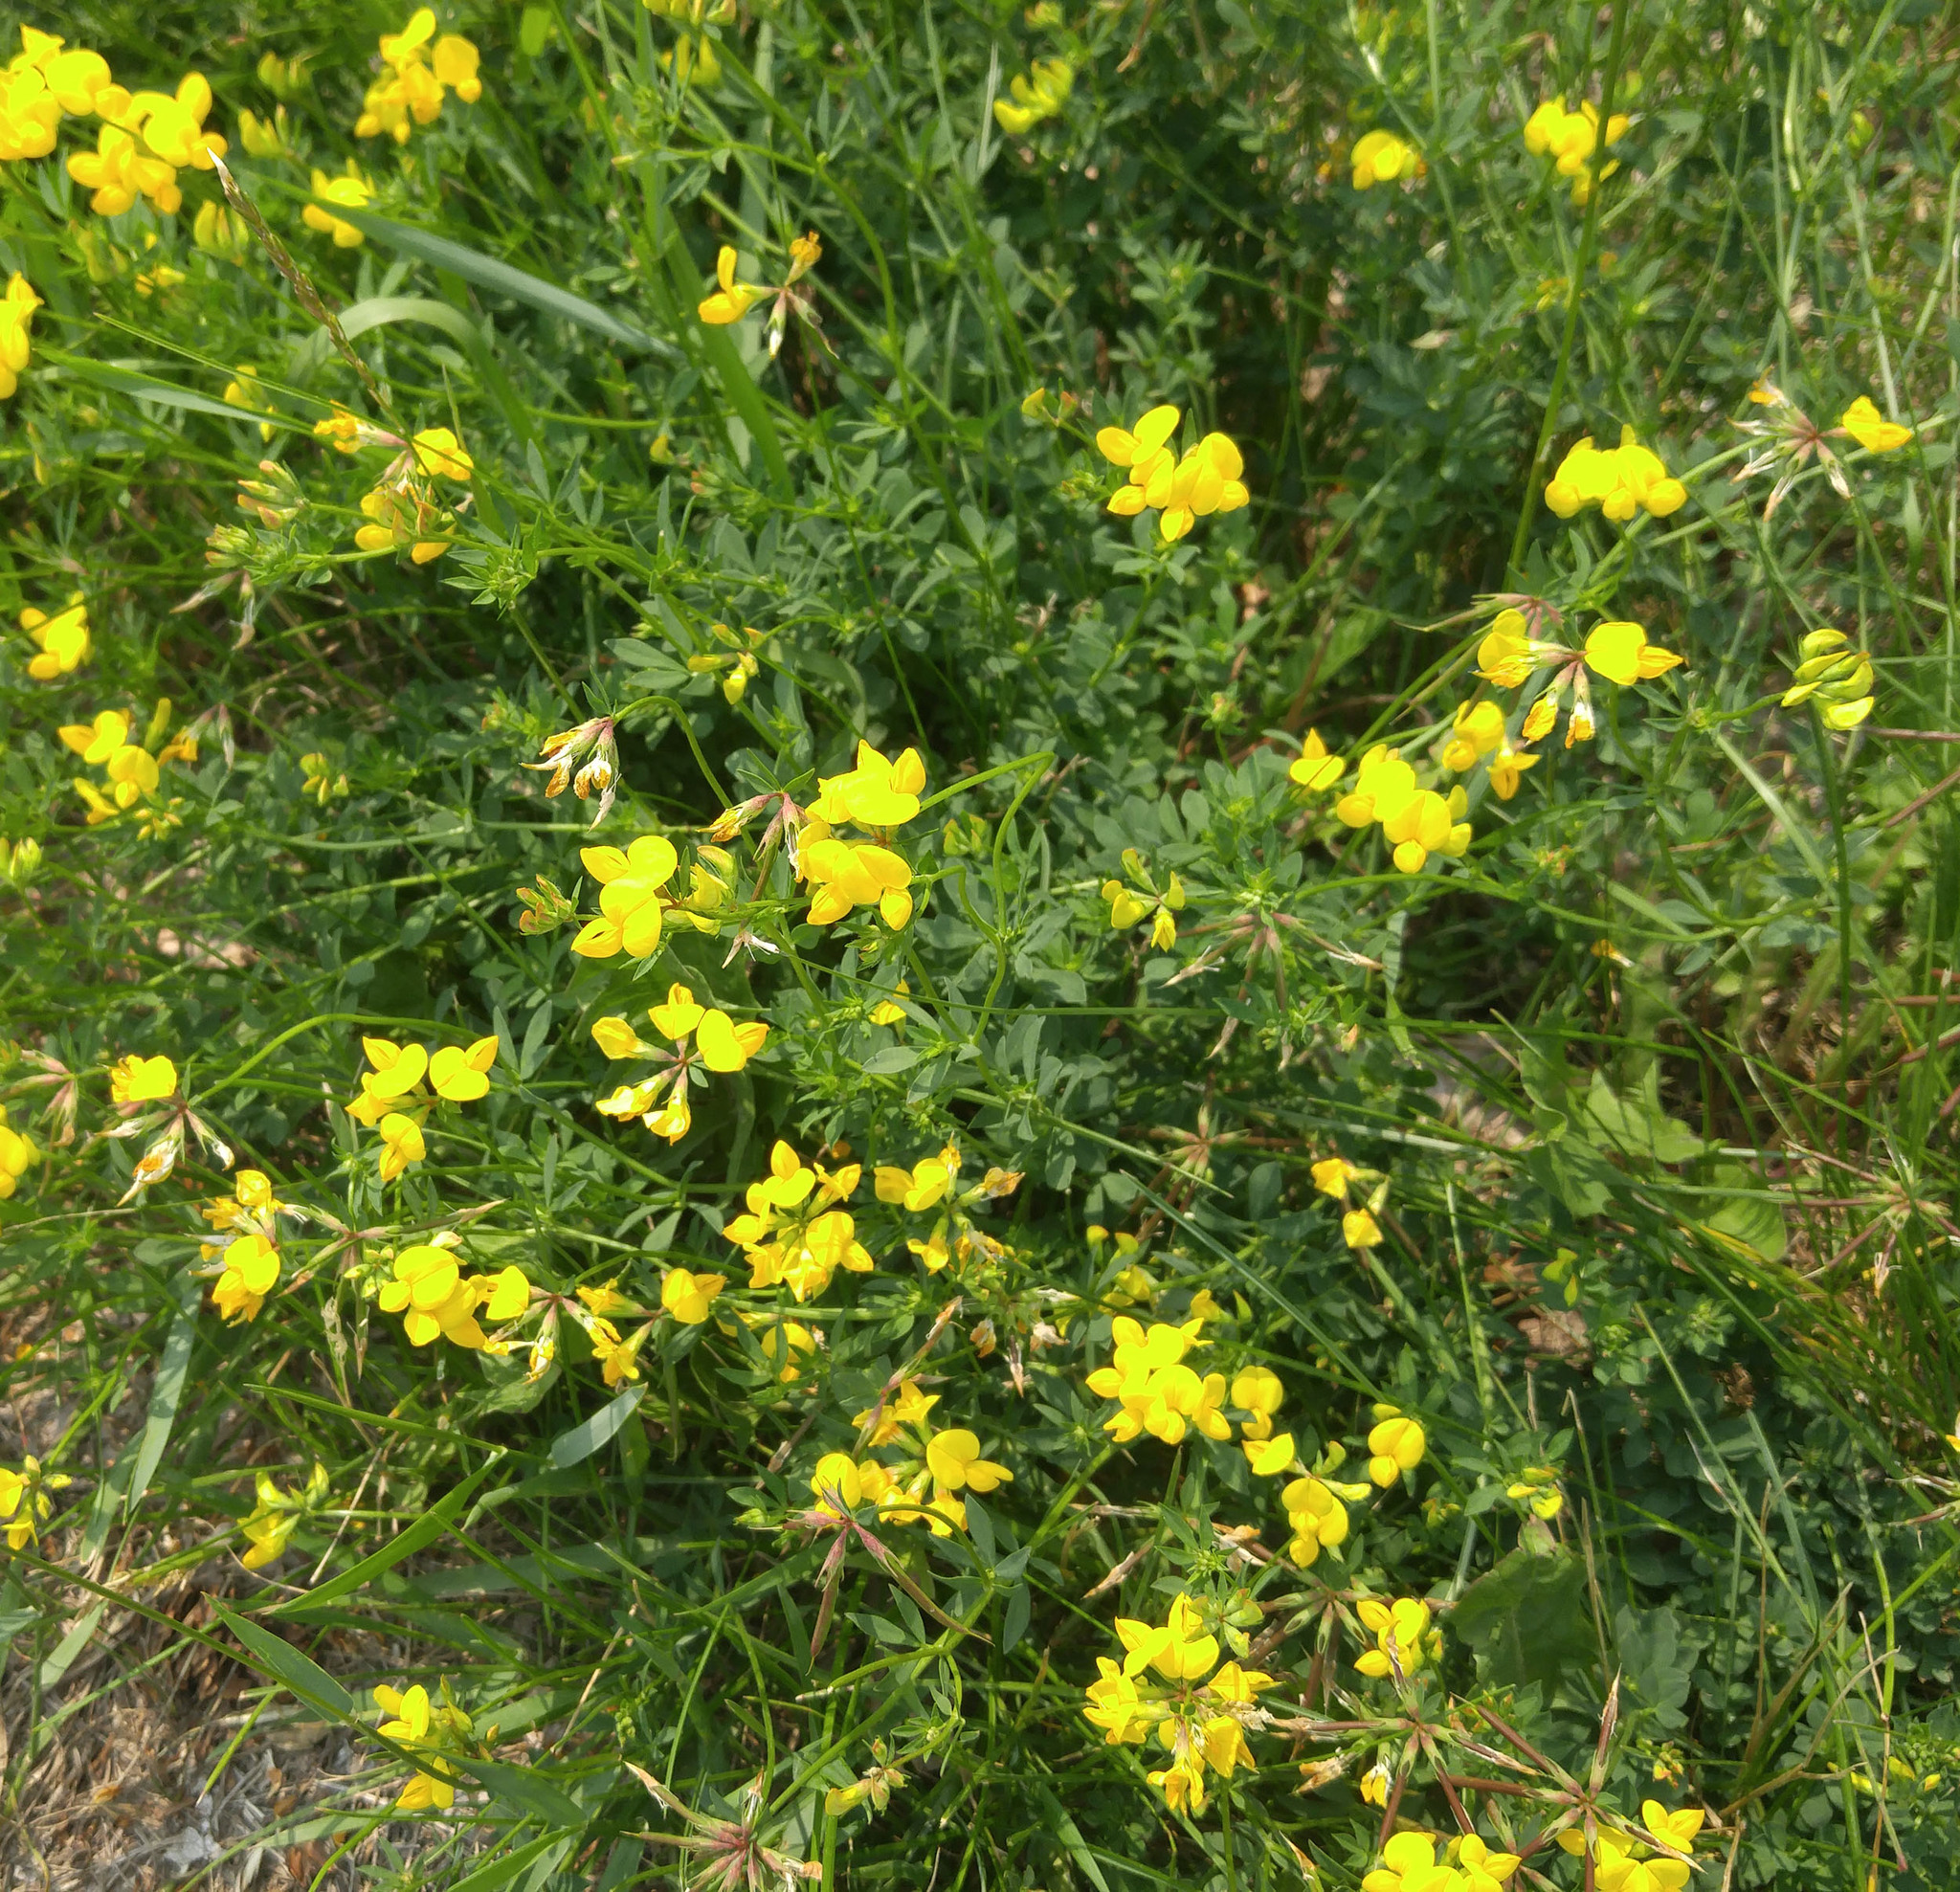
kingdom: Plantae
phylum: Tracheophyta
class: Magnoliopsida
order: Fabales
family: Fabaceae
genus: Lotus
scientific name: Lotus corniculatus
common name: Common bird's-foot-trefoil
